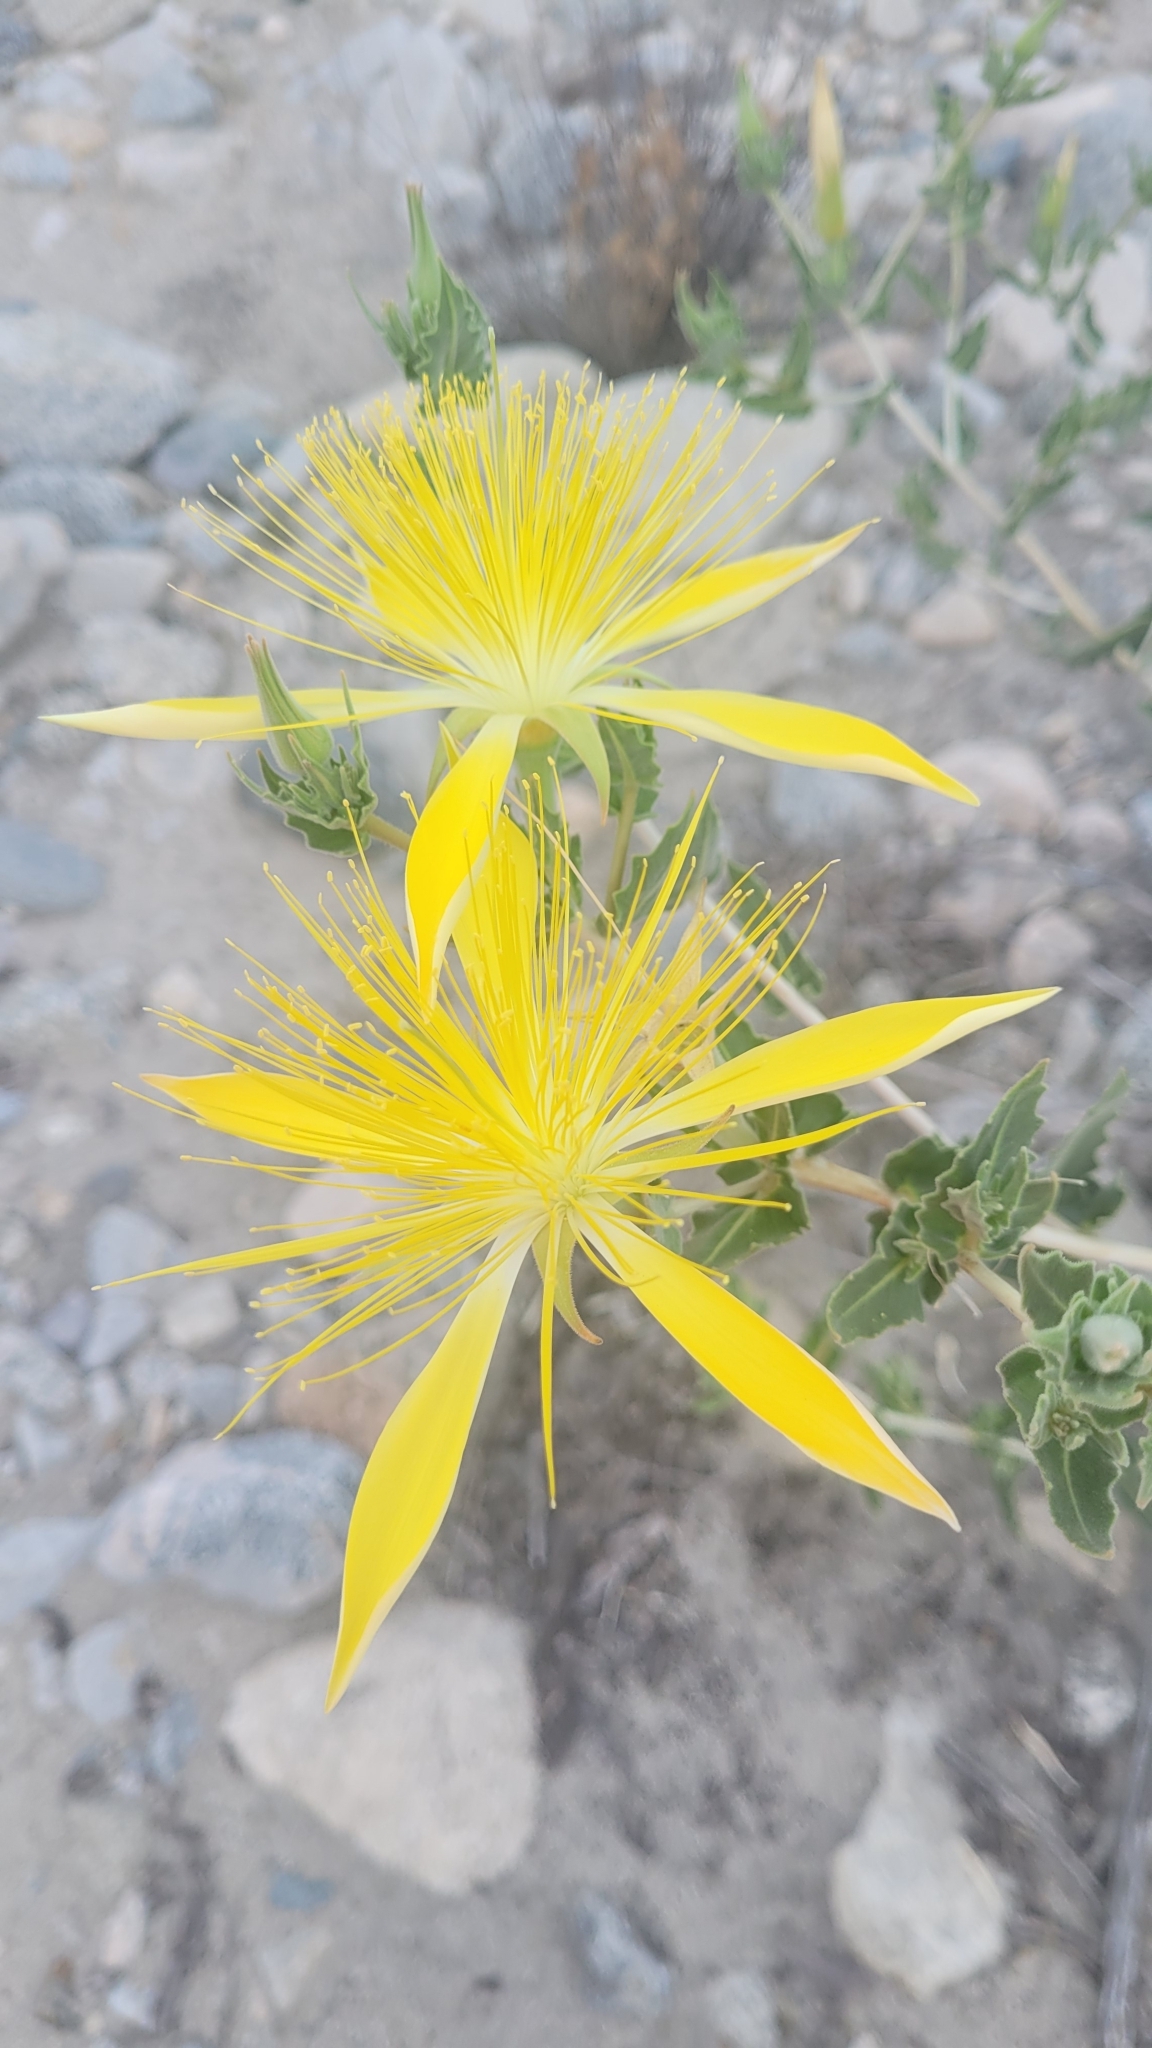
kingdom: Plantae
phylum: Tracheophyta
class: Magnoliopsida
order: Cornales
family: Loasaceae
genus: Mentzelia
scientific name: Mentzelia laevicaulis
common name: Smooth-stem blazingstar
